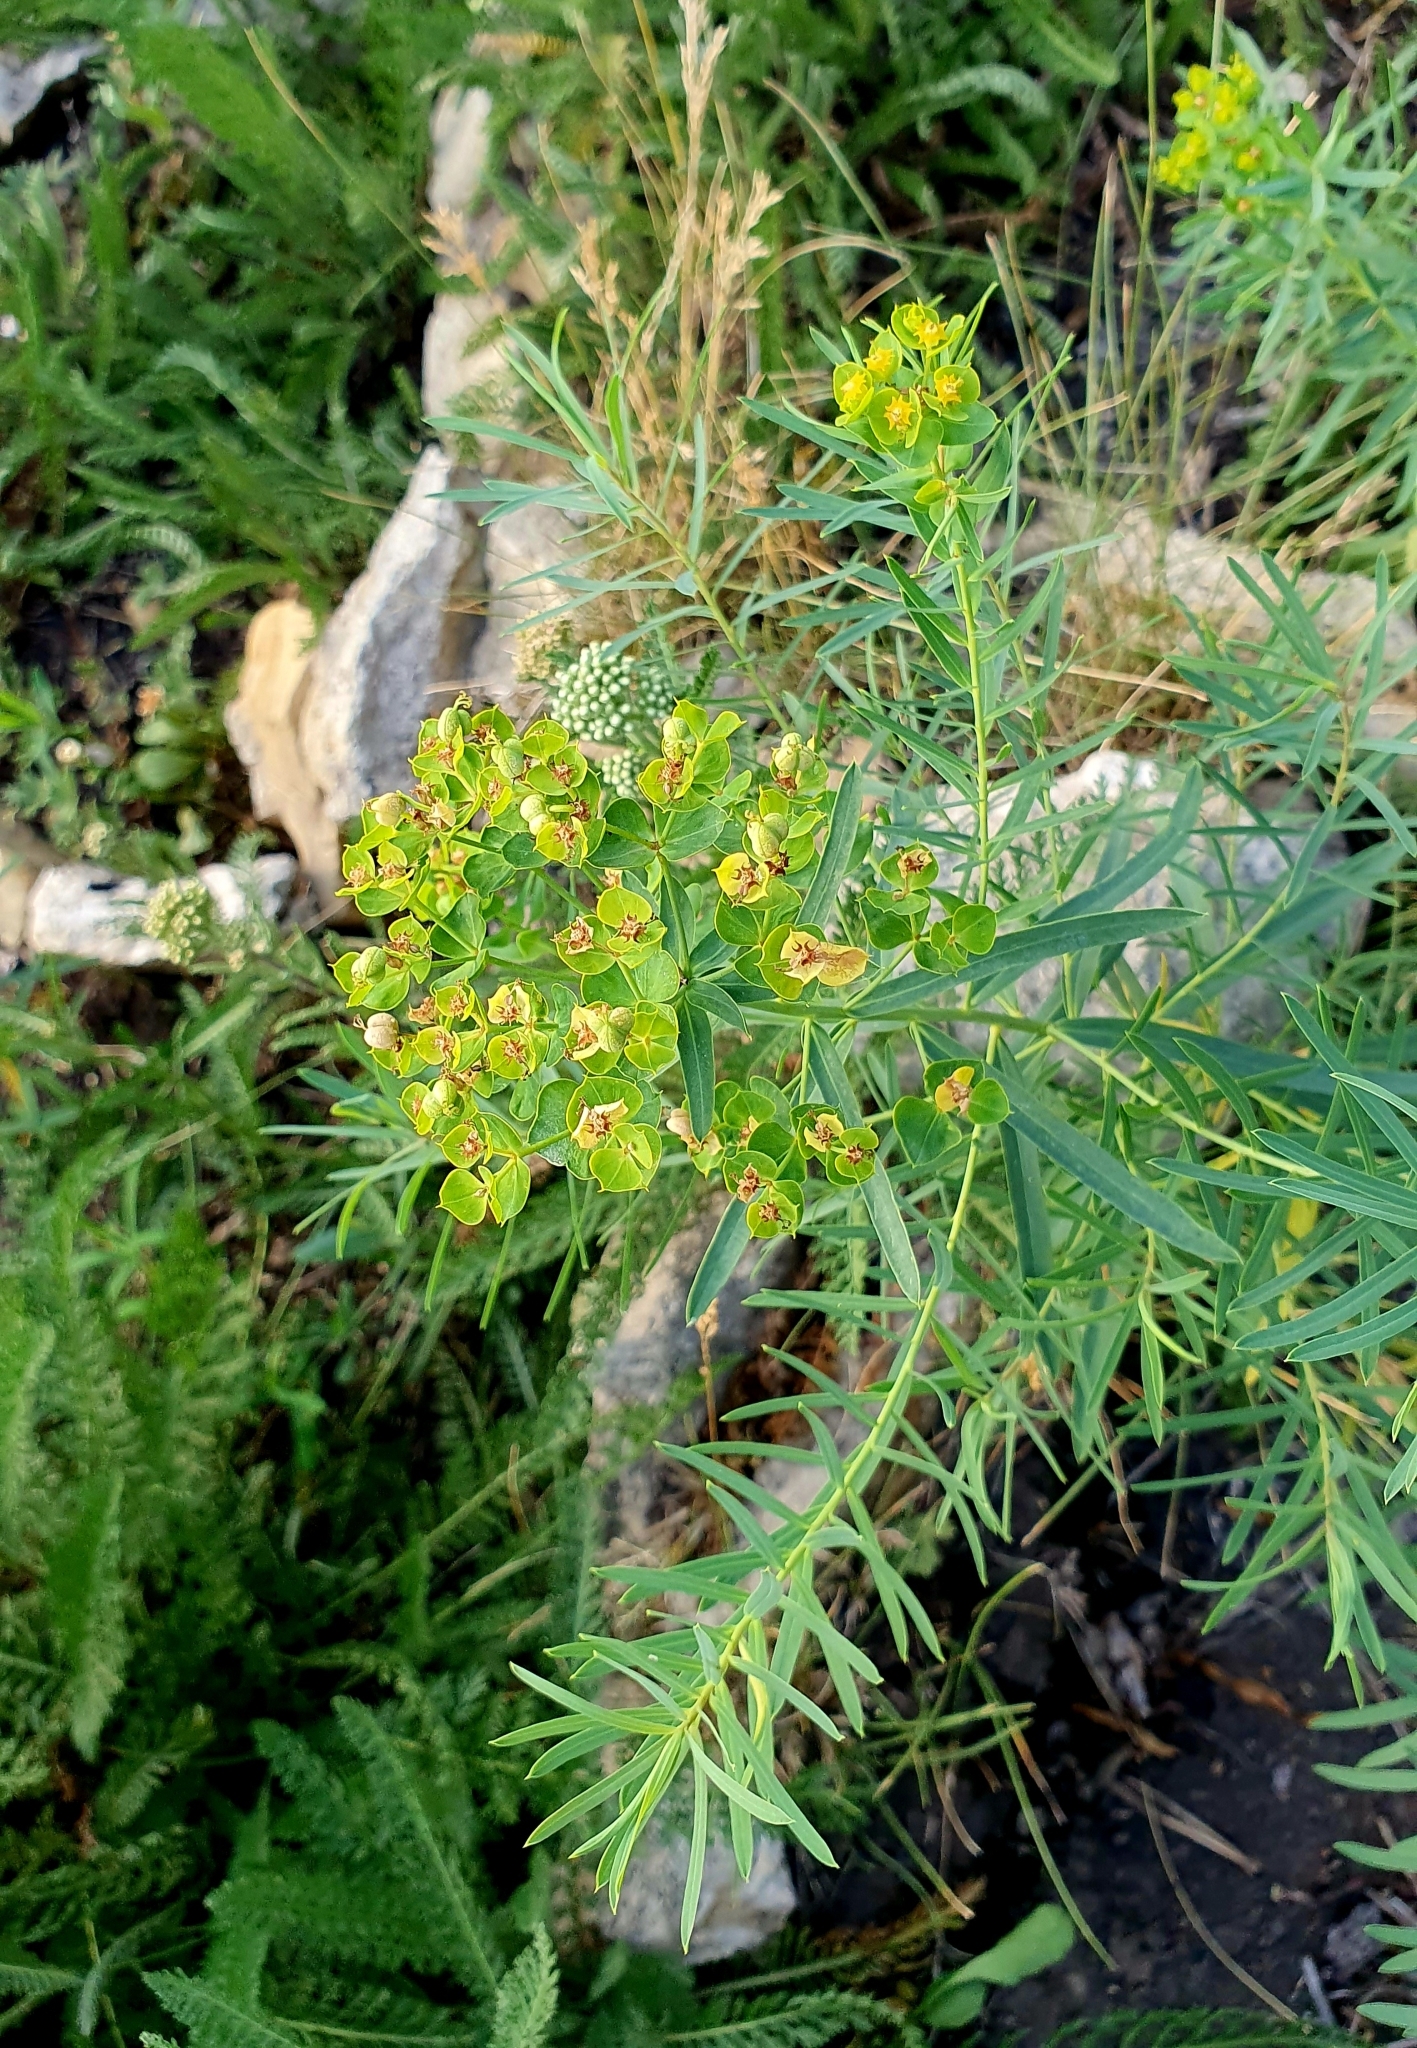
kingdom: Plantae
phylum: Tracheophyta
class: Magnoliopsida
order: Malpighiales
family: Euphorbiaceae
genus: Euphorbia
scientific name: Euphorbia virgata
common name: Leafy spurge
